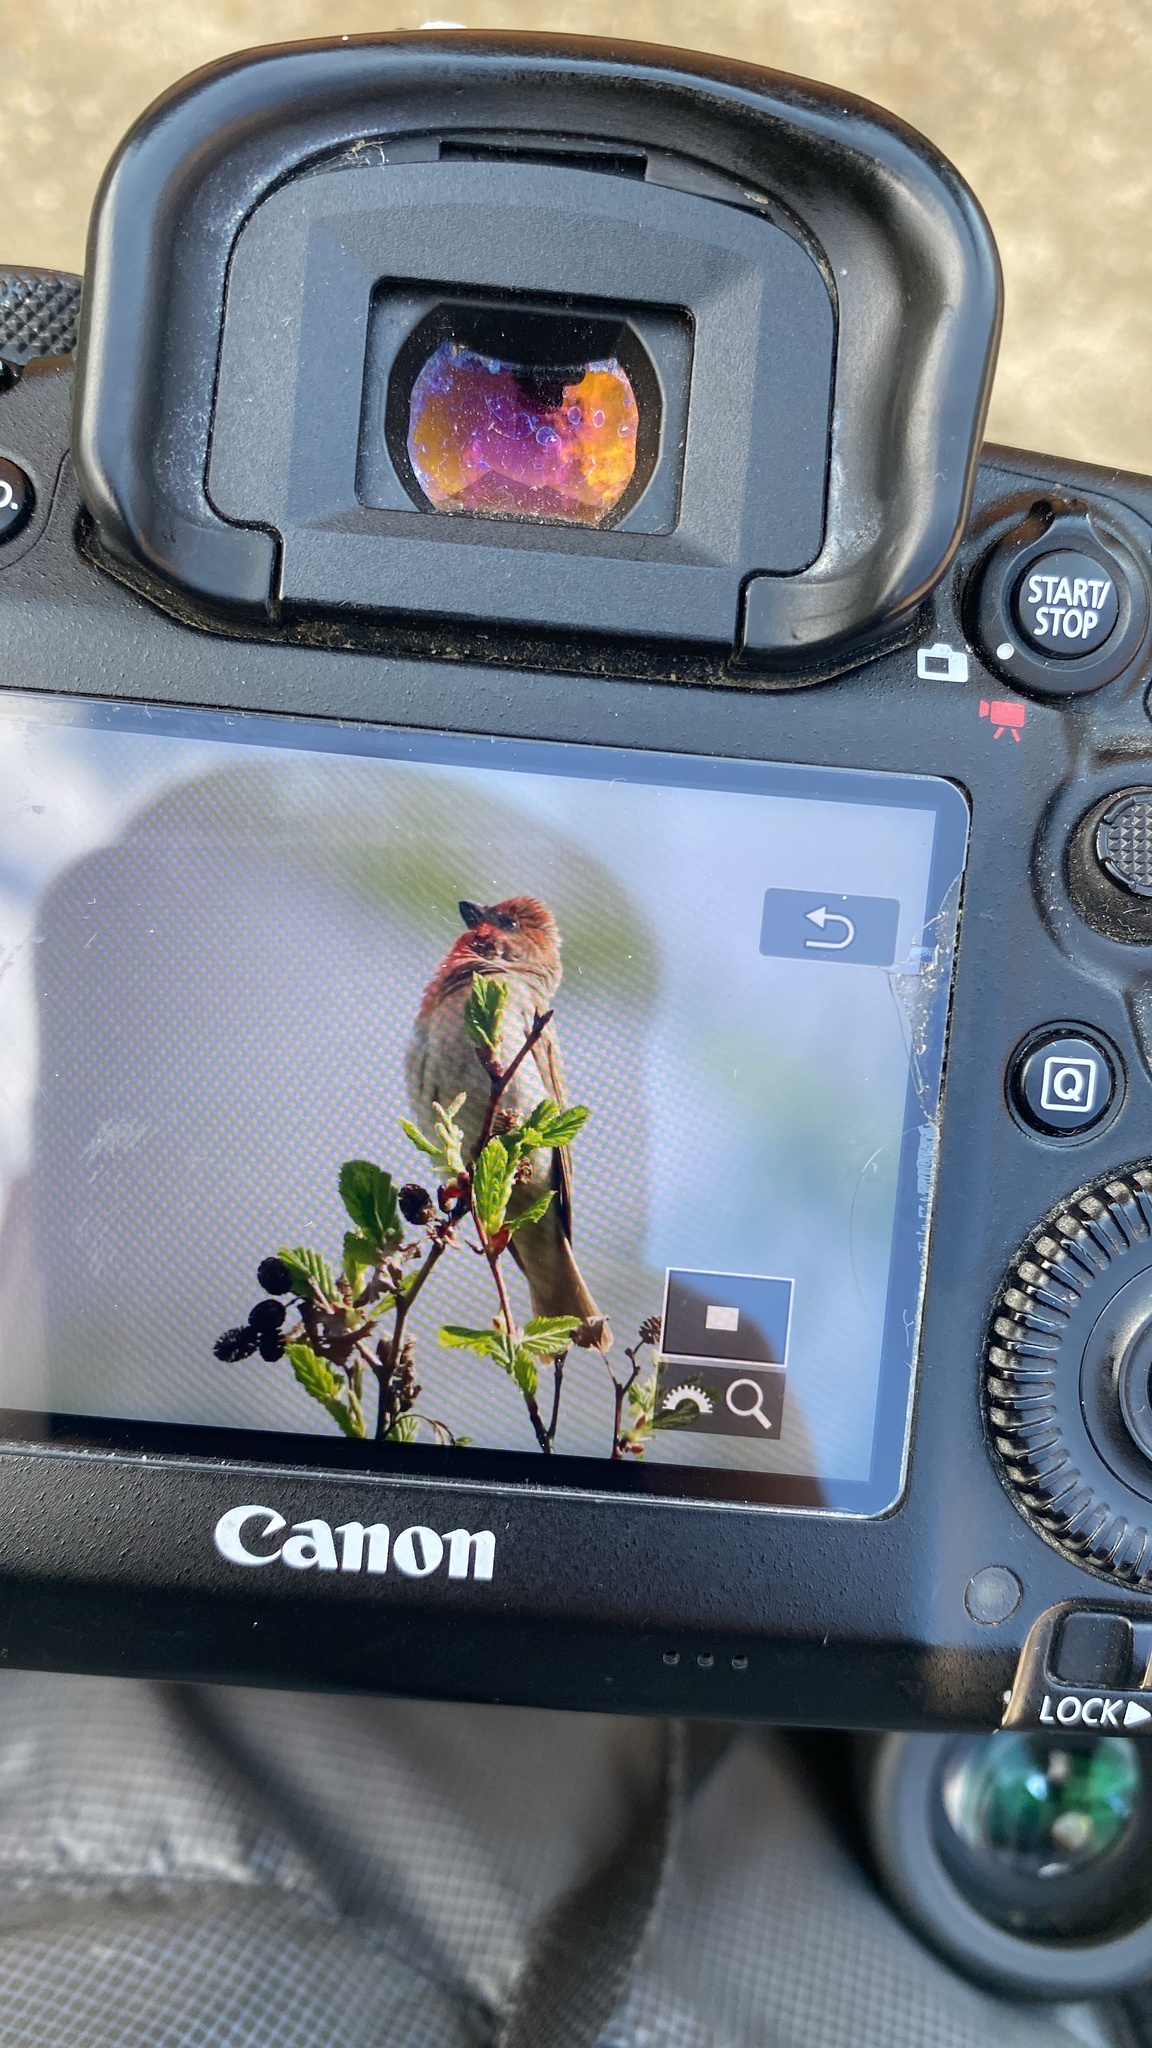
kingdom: Animalia
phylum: Chordata
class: Aves
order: Passeriformes
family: Fringillidae
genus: Carpodacus
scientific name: Carpodacus erythrinus
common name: Common rosefinch
